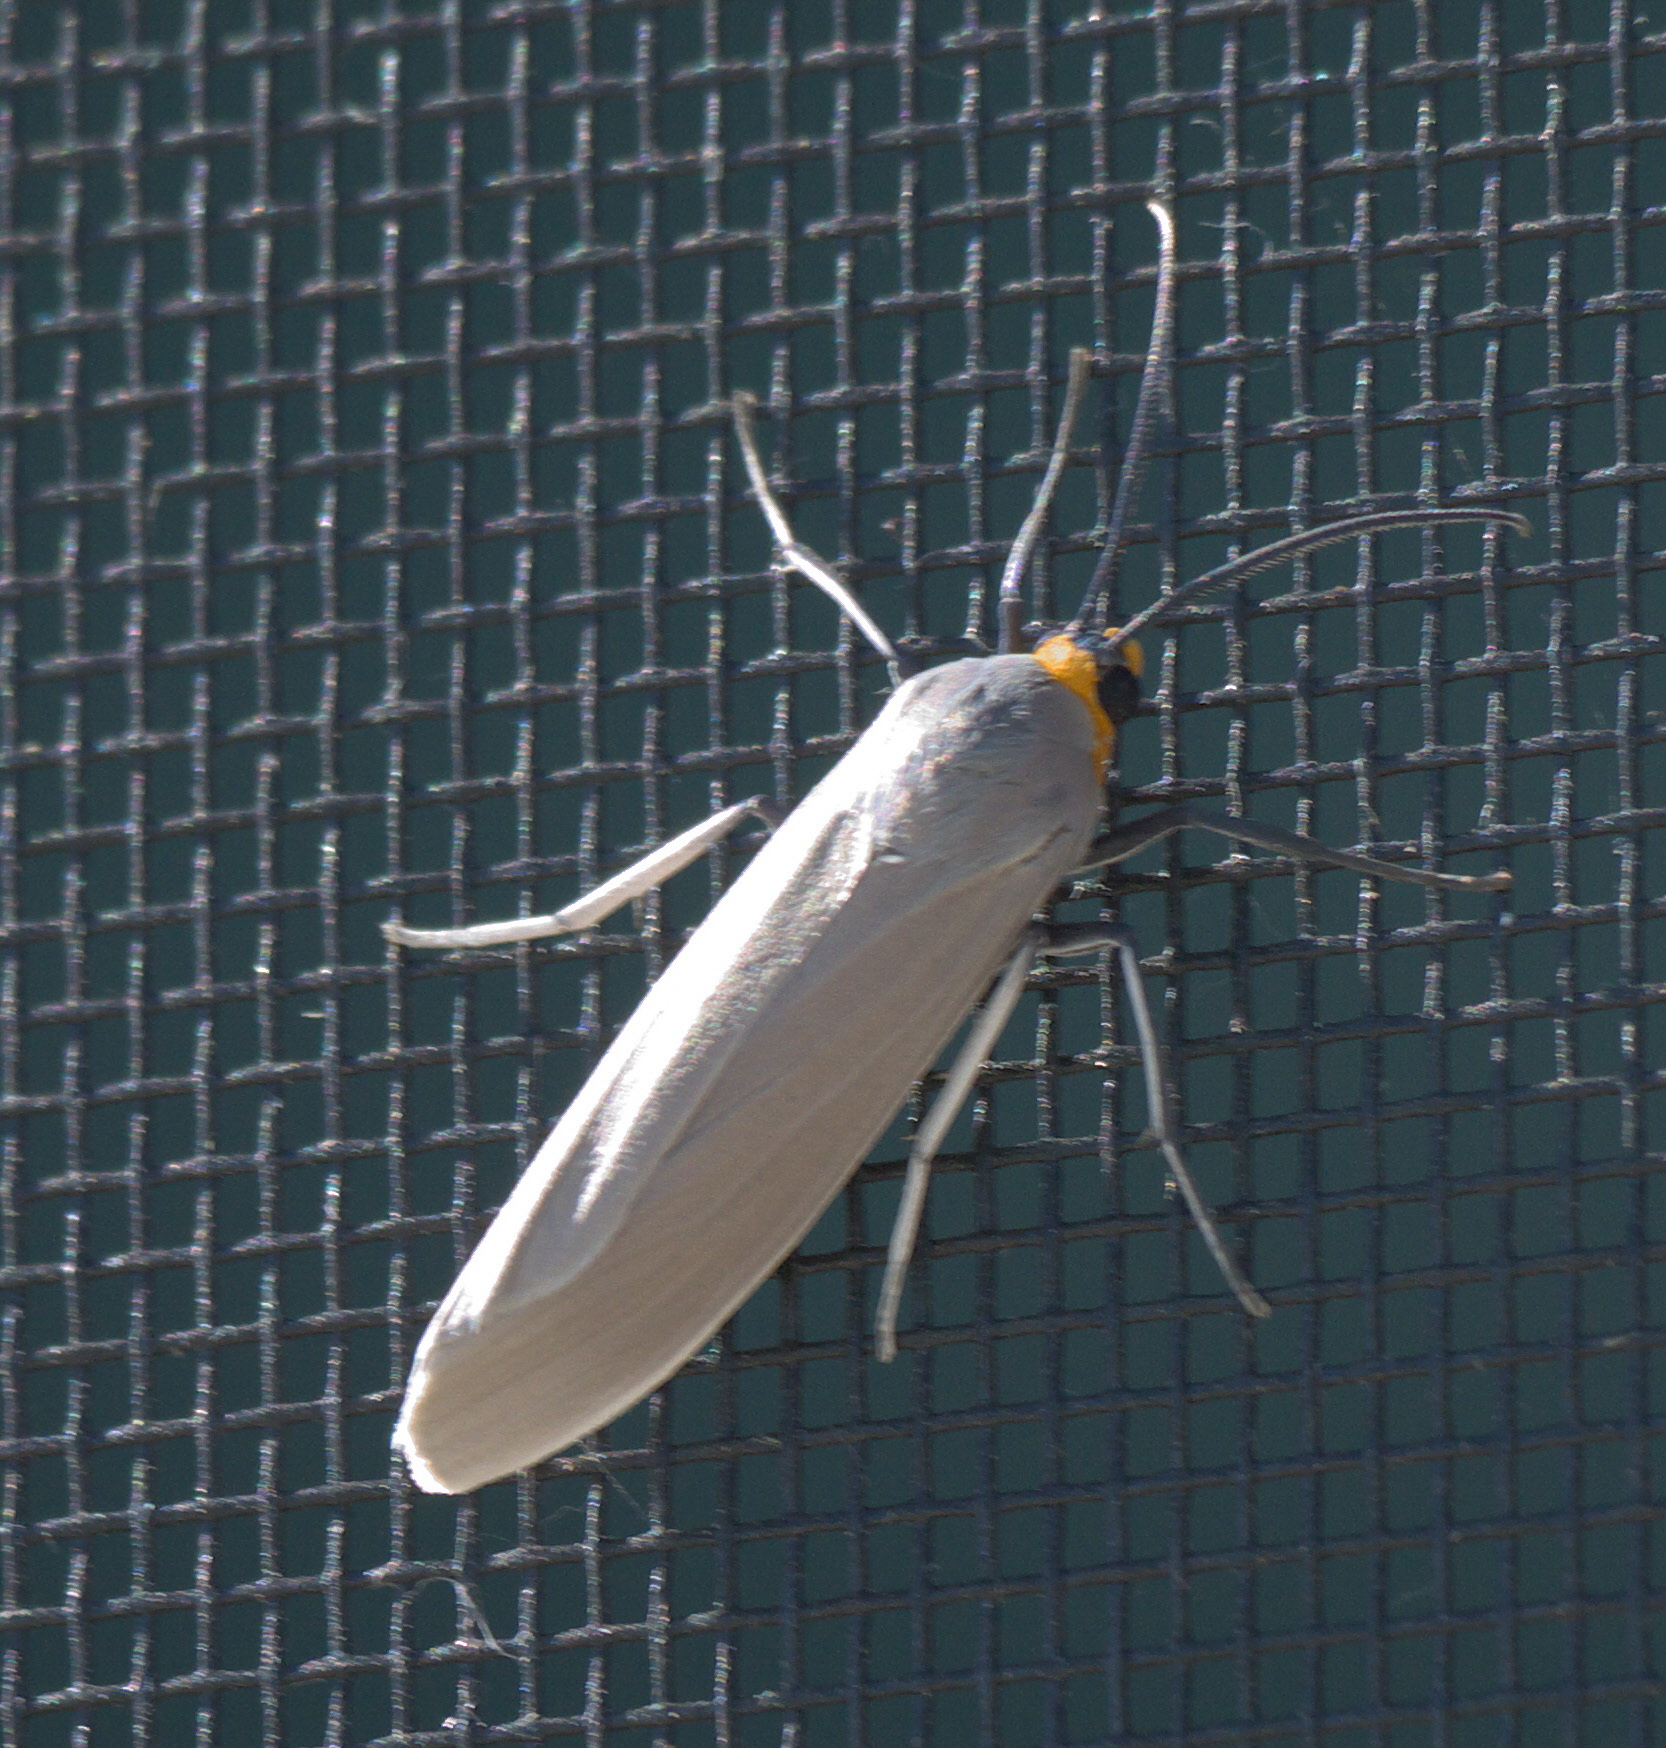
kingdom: Animalia
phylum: Arthropoda
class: Insecta
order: Lepidoptera
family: Erebidae
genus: Lymire
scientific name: Lymire edwardsii
